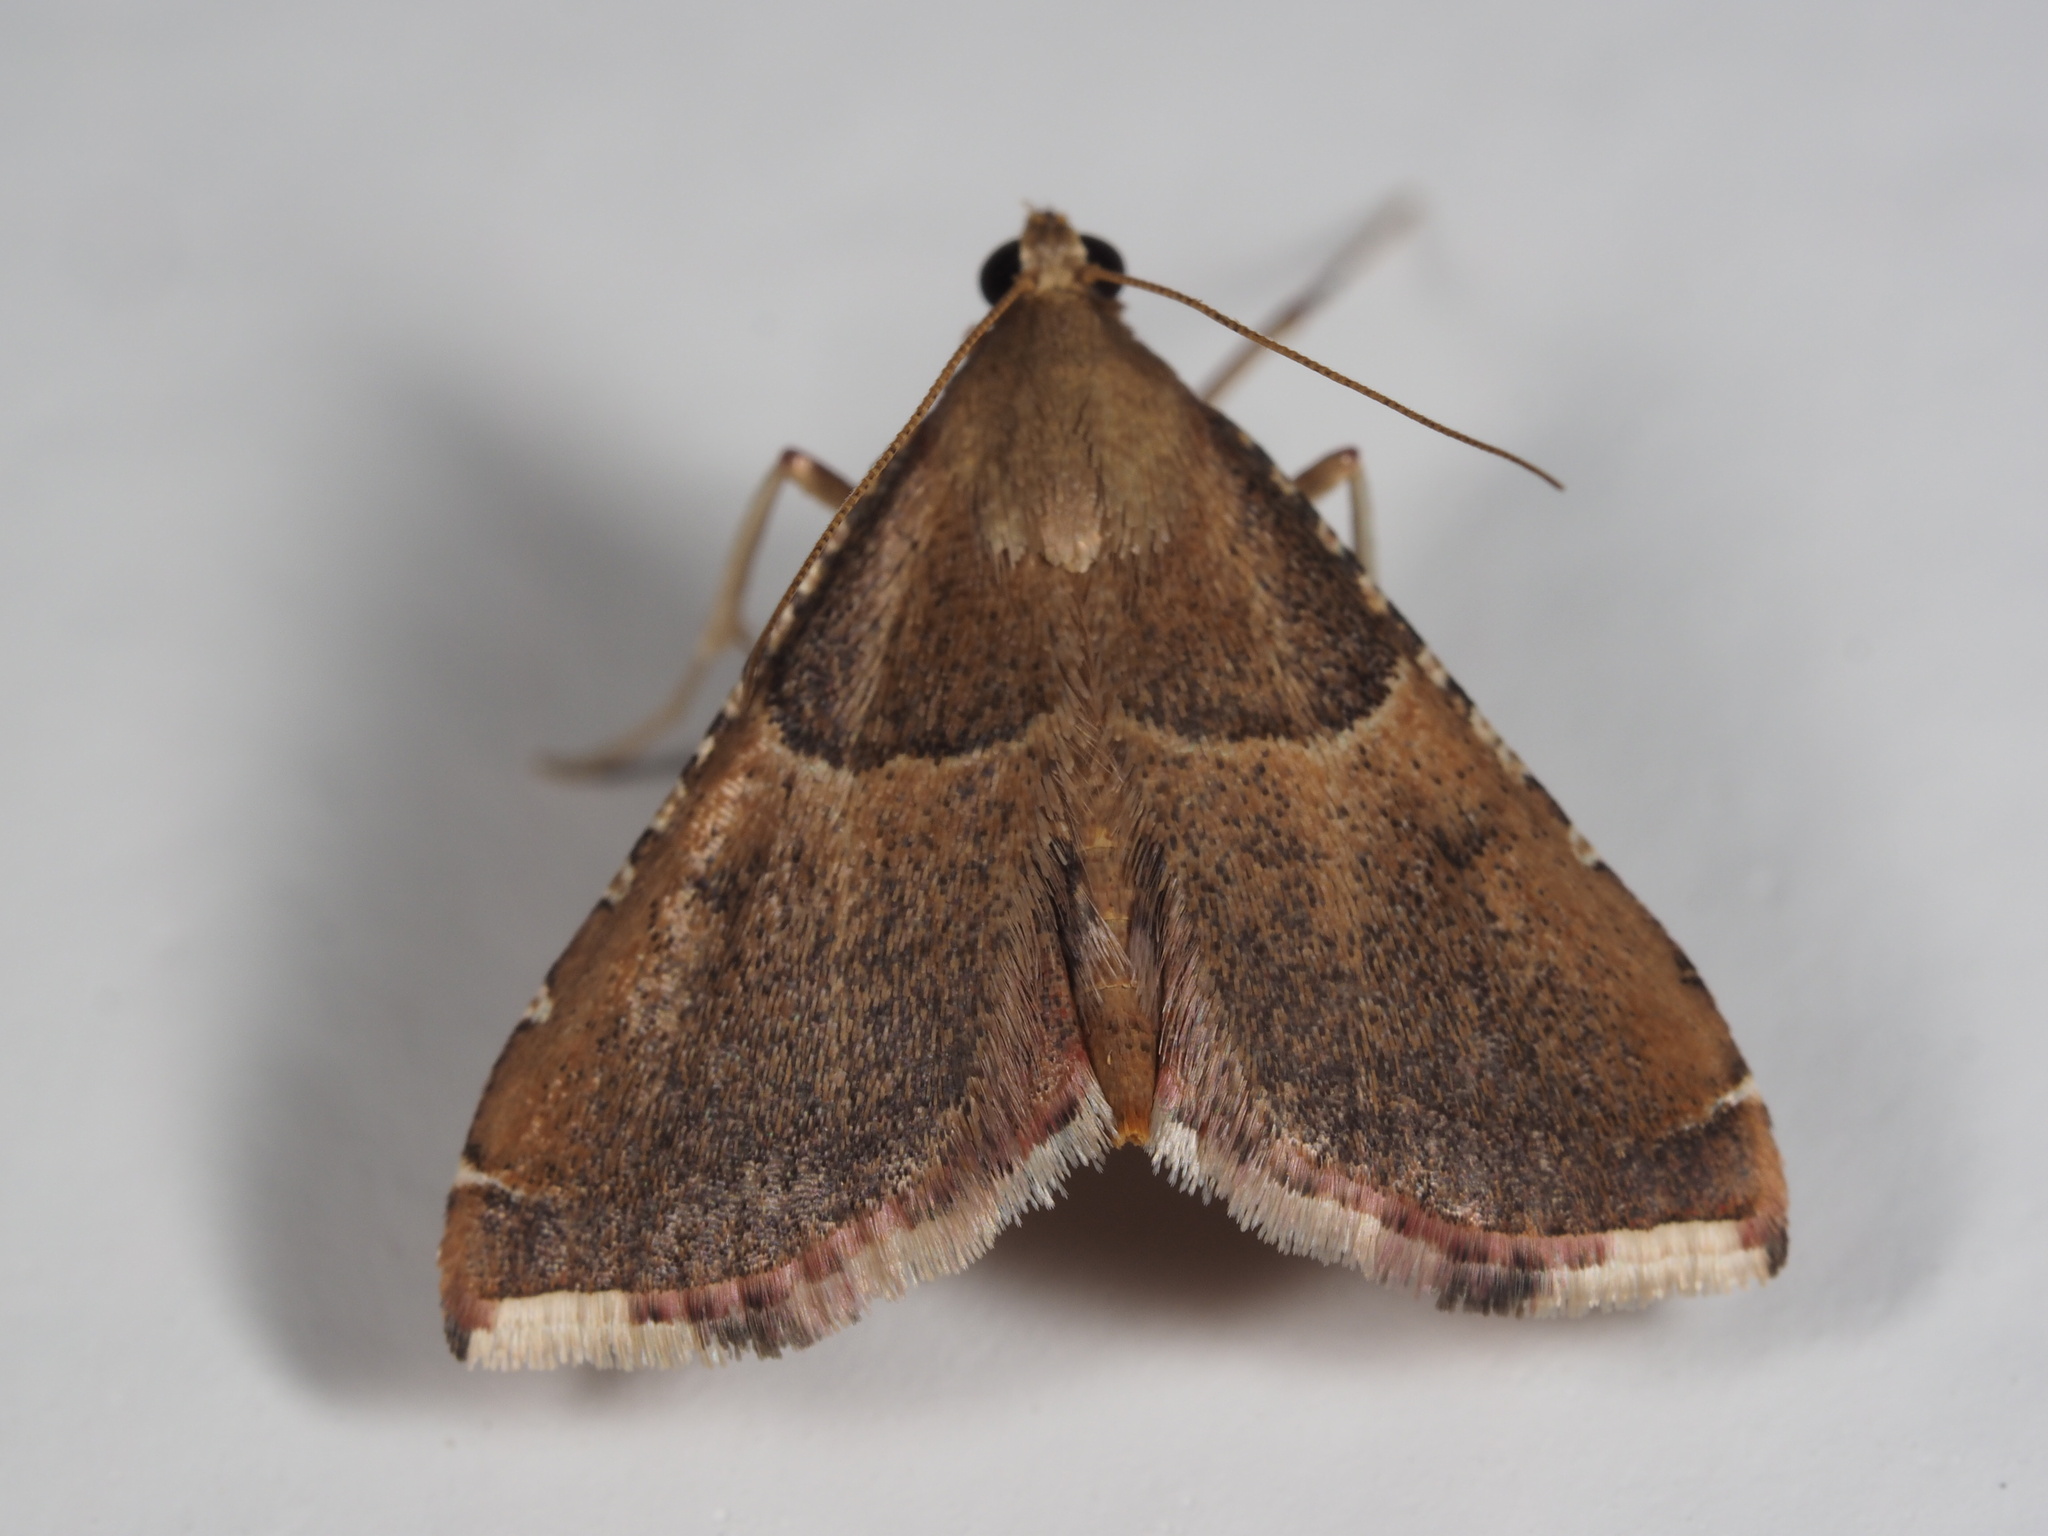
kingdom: Animalia
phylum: Arthropoda
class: Insecta
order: Lepidoptera
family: Pyralidae
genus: Endotricha
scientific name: Endotricha flammealis
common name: Rosy tabby
